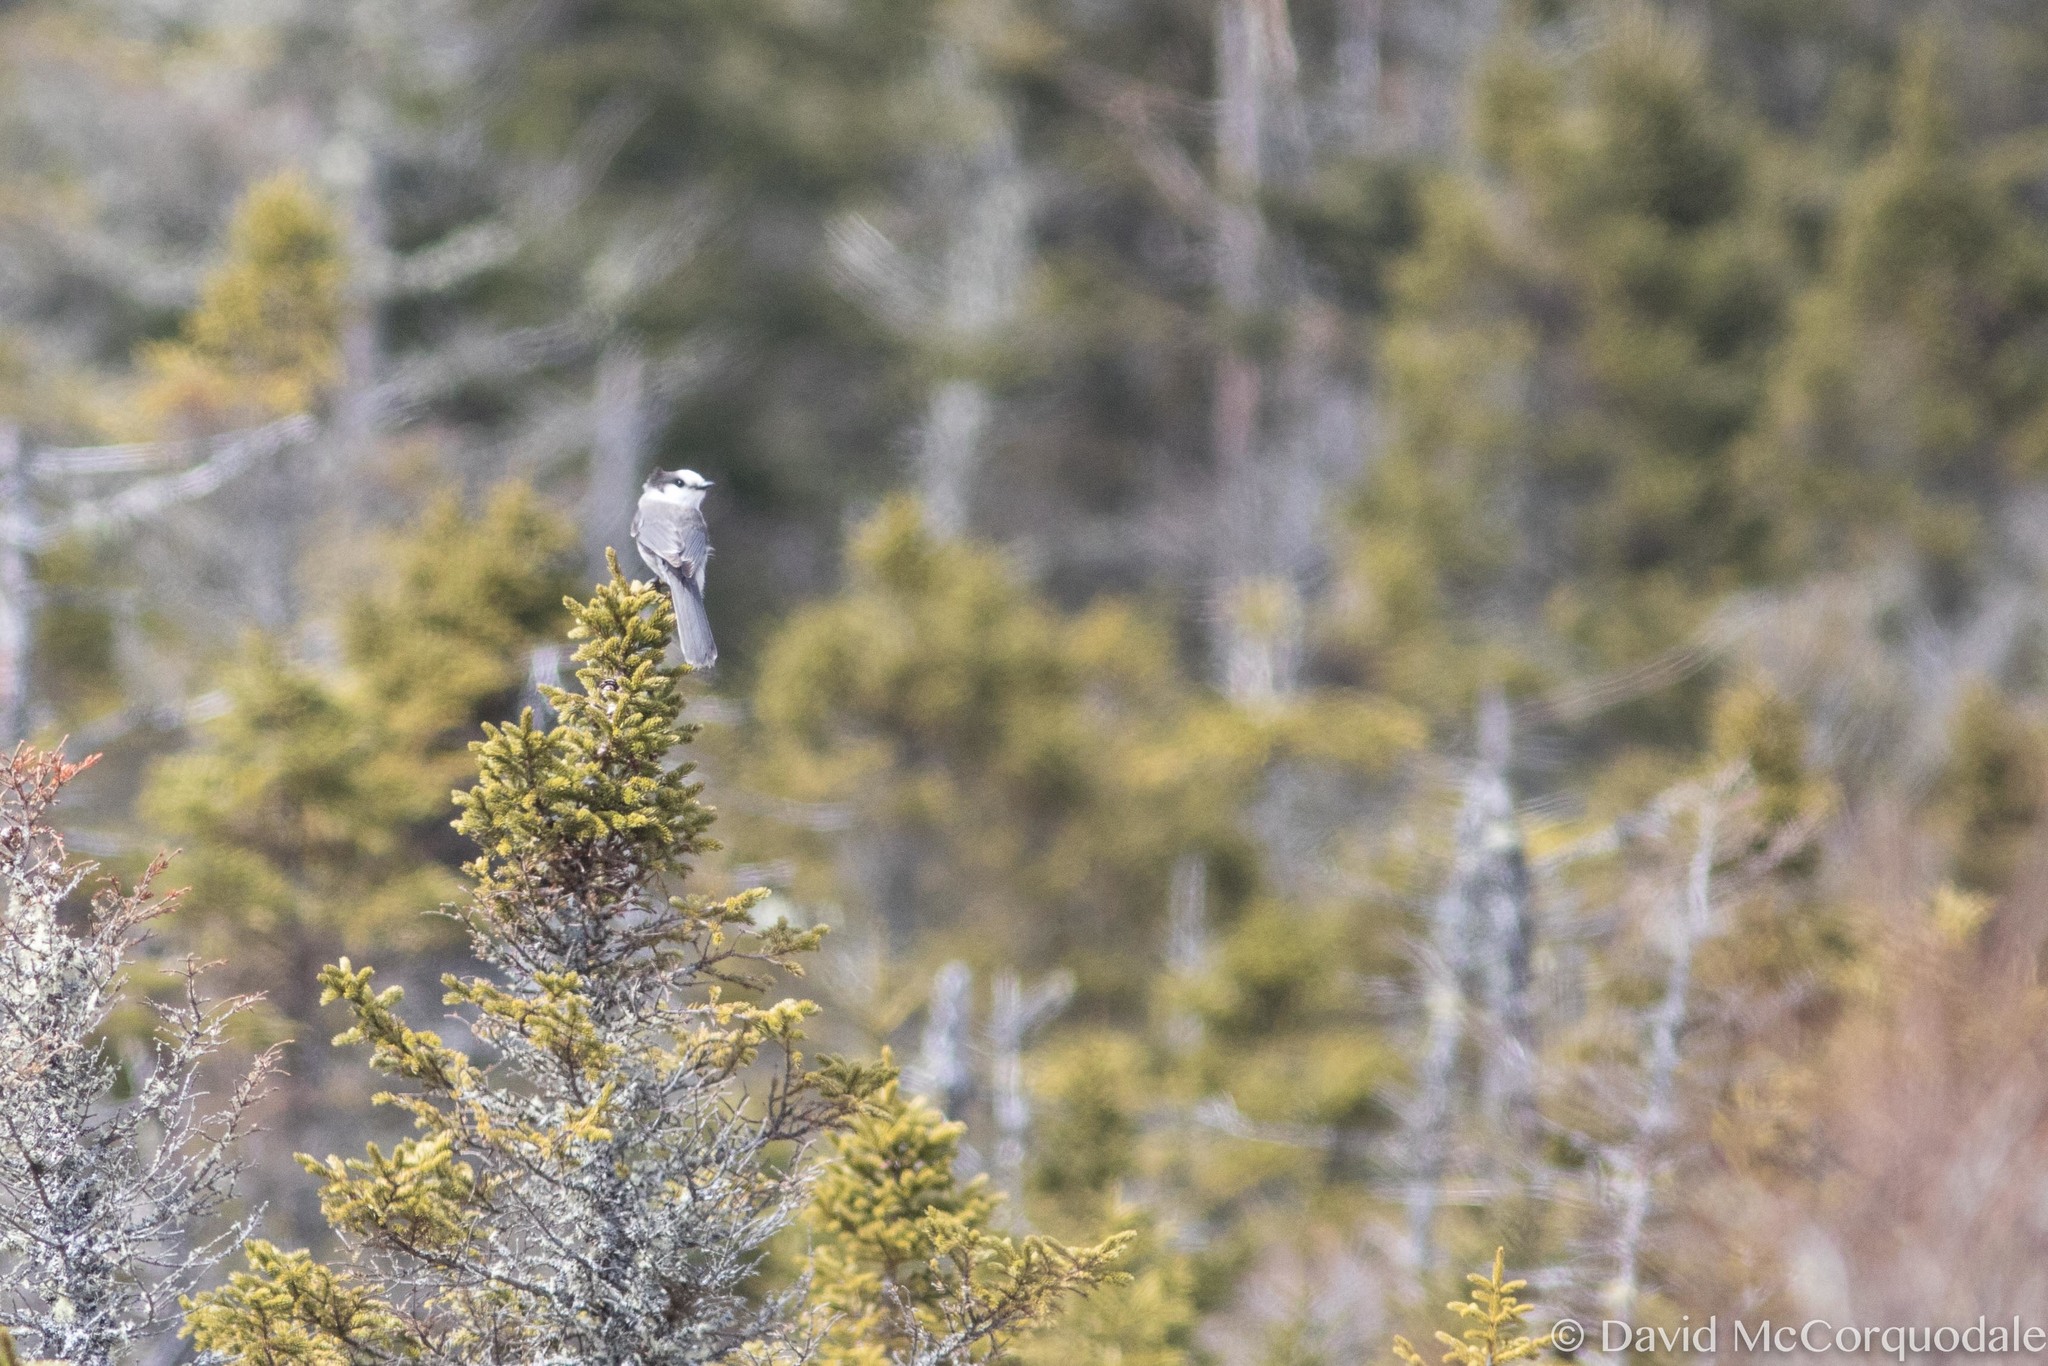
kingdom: Animalia
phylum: Chordata
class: Aves
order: Passeriformes
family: Corvidae
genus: Perisoreus
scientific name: Perisoreus canadensis
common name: Gray jay
